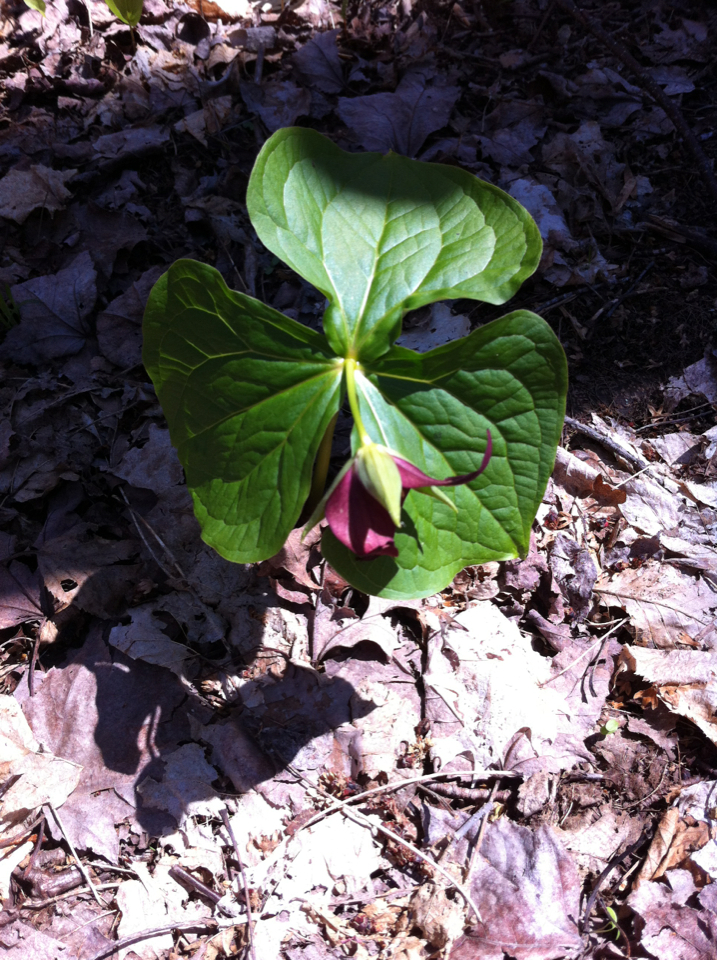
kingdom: Plantae
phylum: Tracheophyta
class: Liliopsida
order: Liliales
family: Melanthiaceae
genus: Trillium
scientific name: Trillium erectum
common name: Purple trillium
